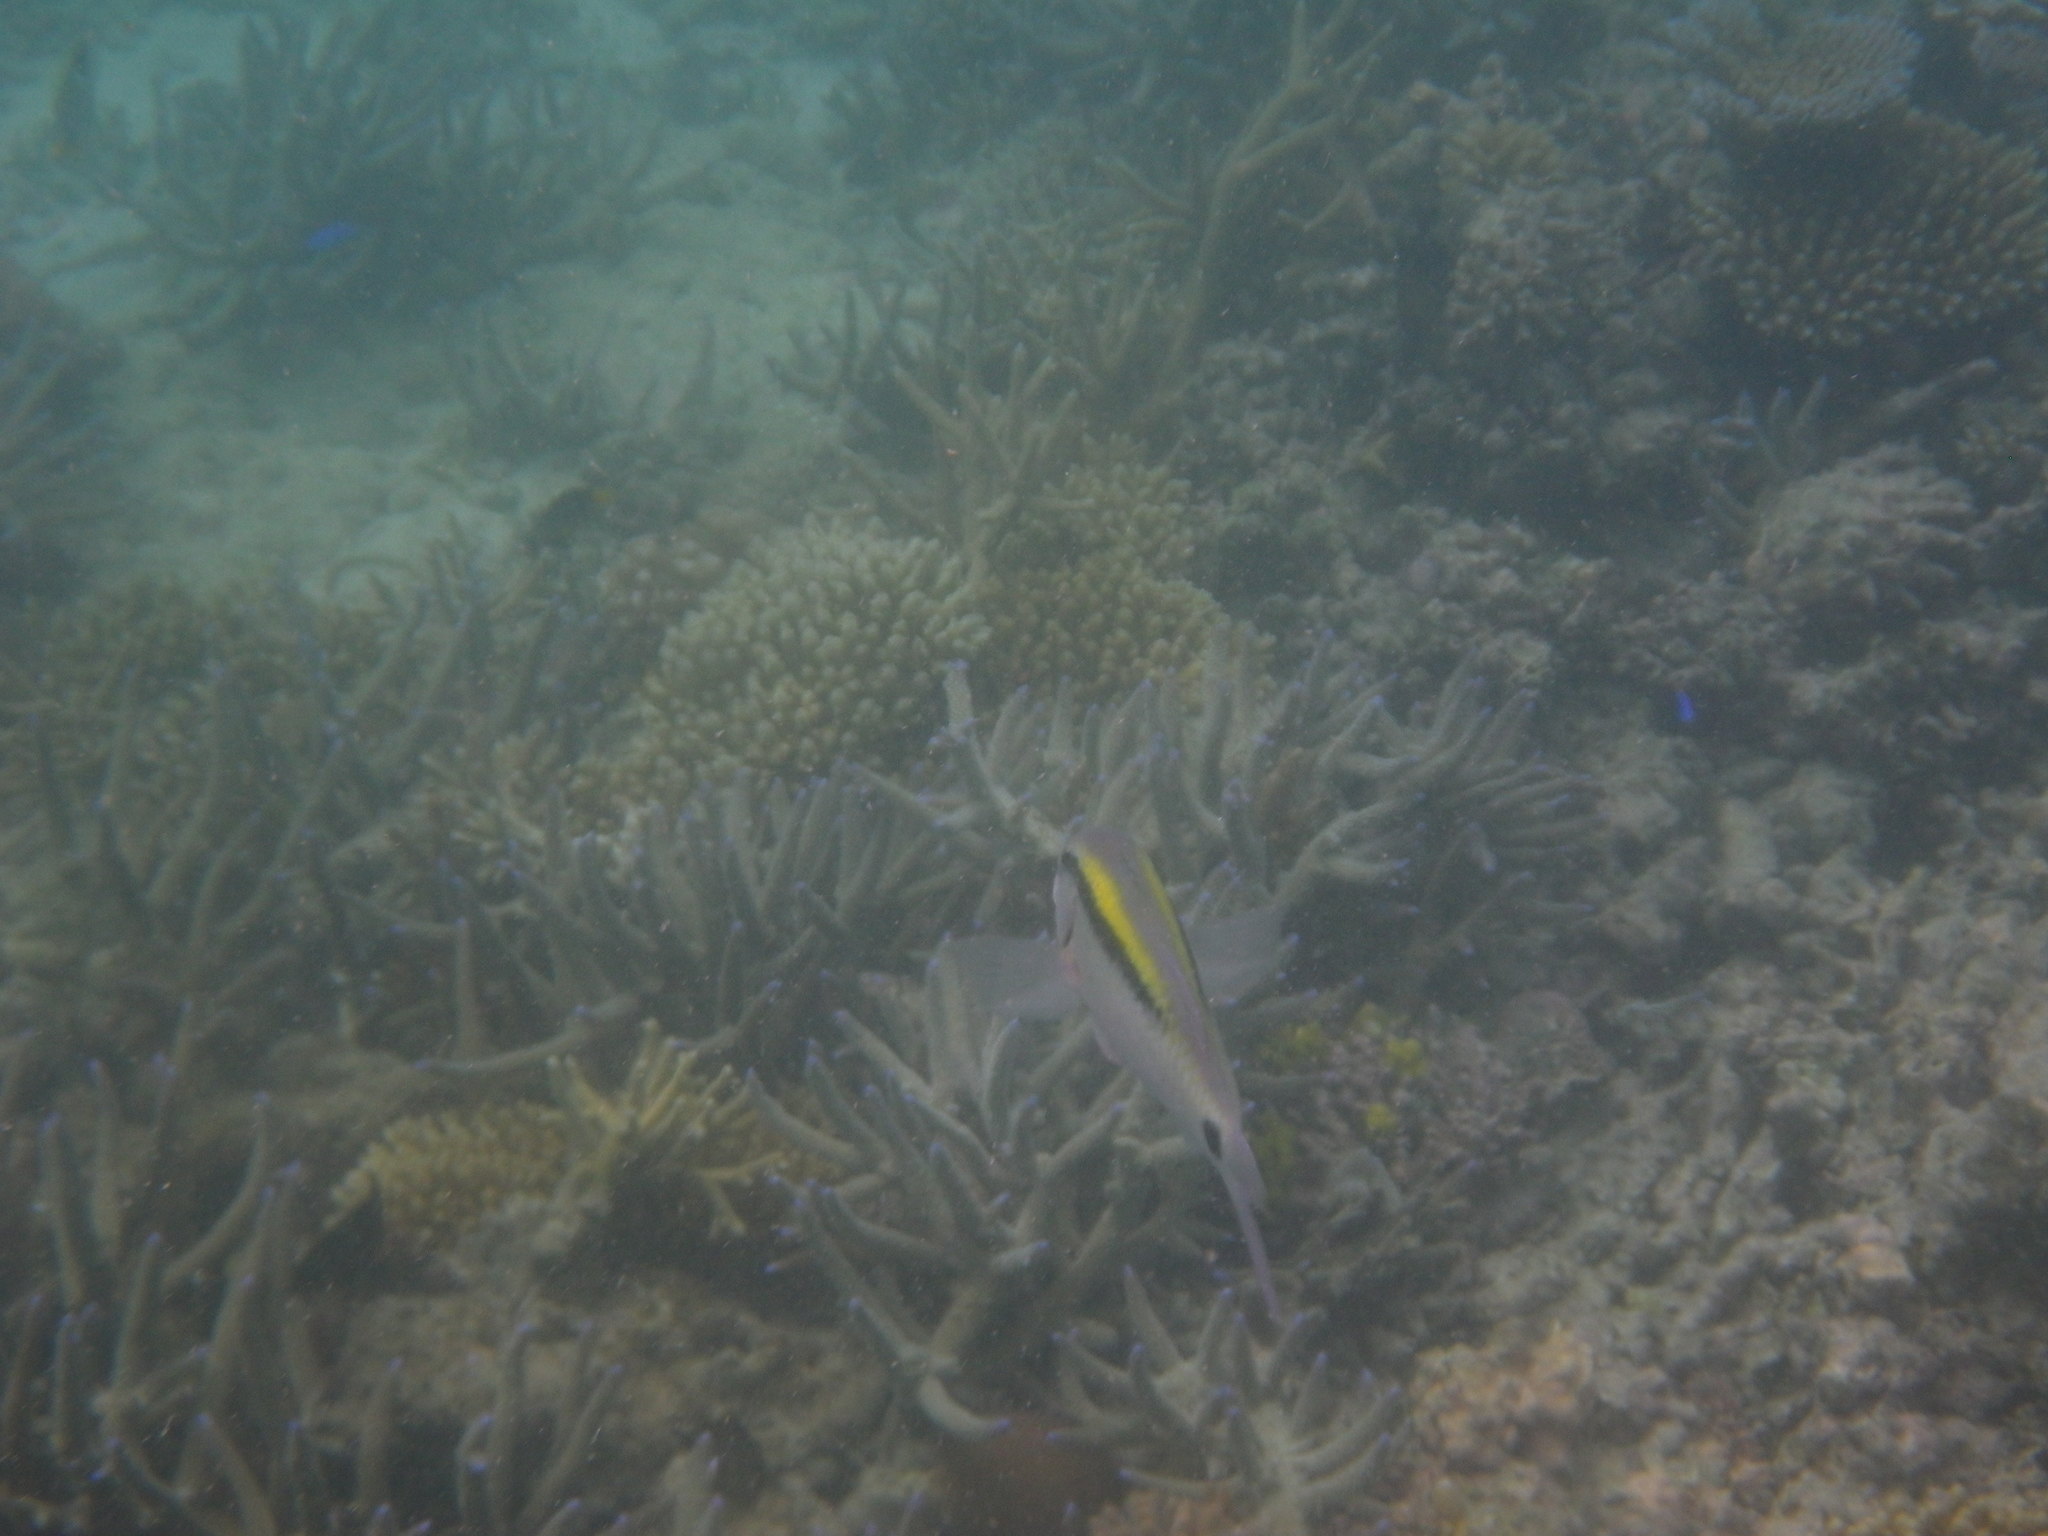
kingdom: Animalia
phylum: Chordata
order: Perciformes
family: Mullidae
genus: Parupeneus
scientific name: Parupeneus barberinus
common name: Dash-and-dot goatfish
